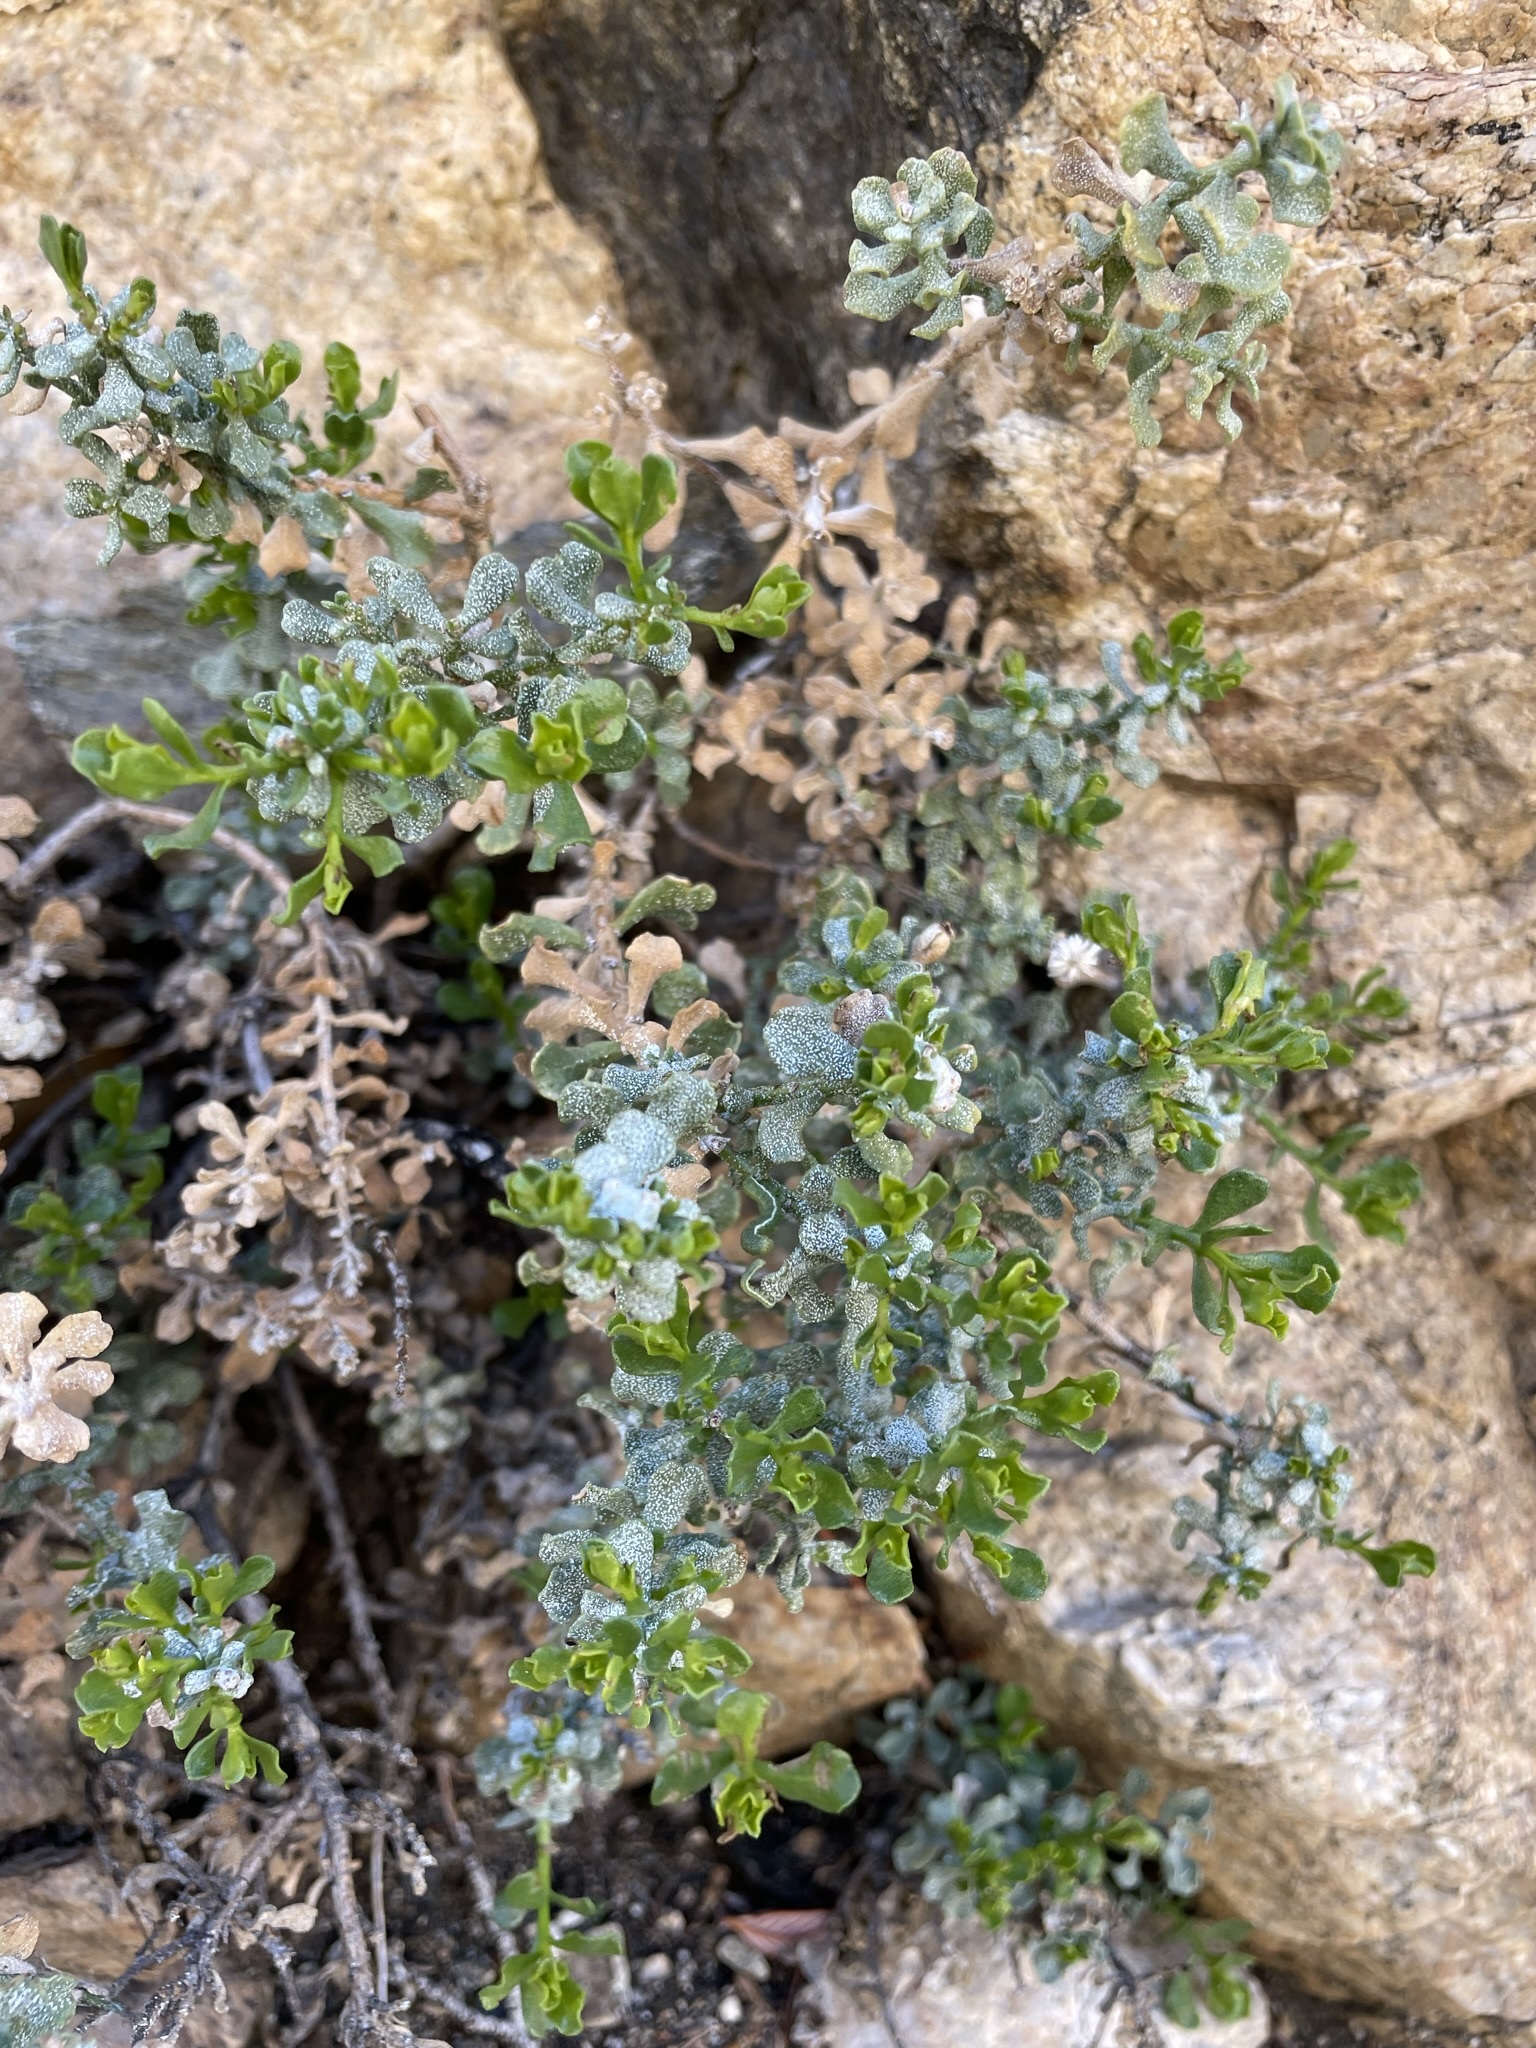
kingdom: Plantae
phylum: Tracheophyta
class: Magnoliopsida
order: Asterales
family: Asteraceae
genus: Ericameria
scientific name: Ericameria cuneata
